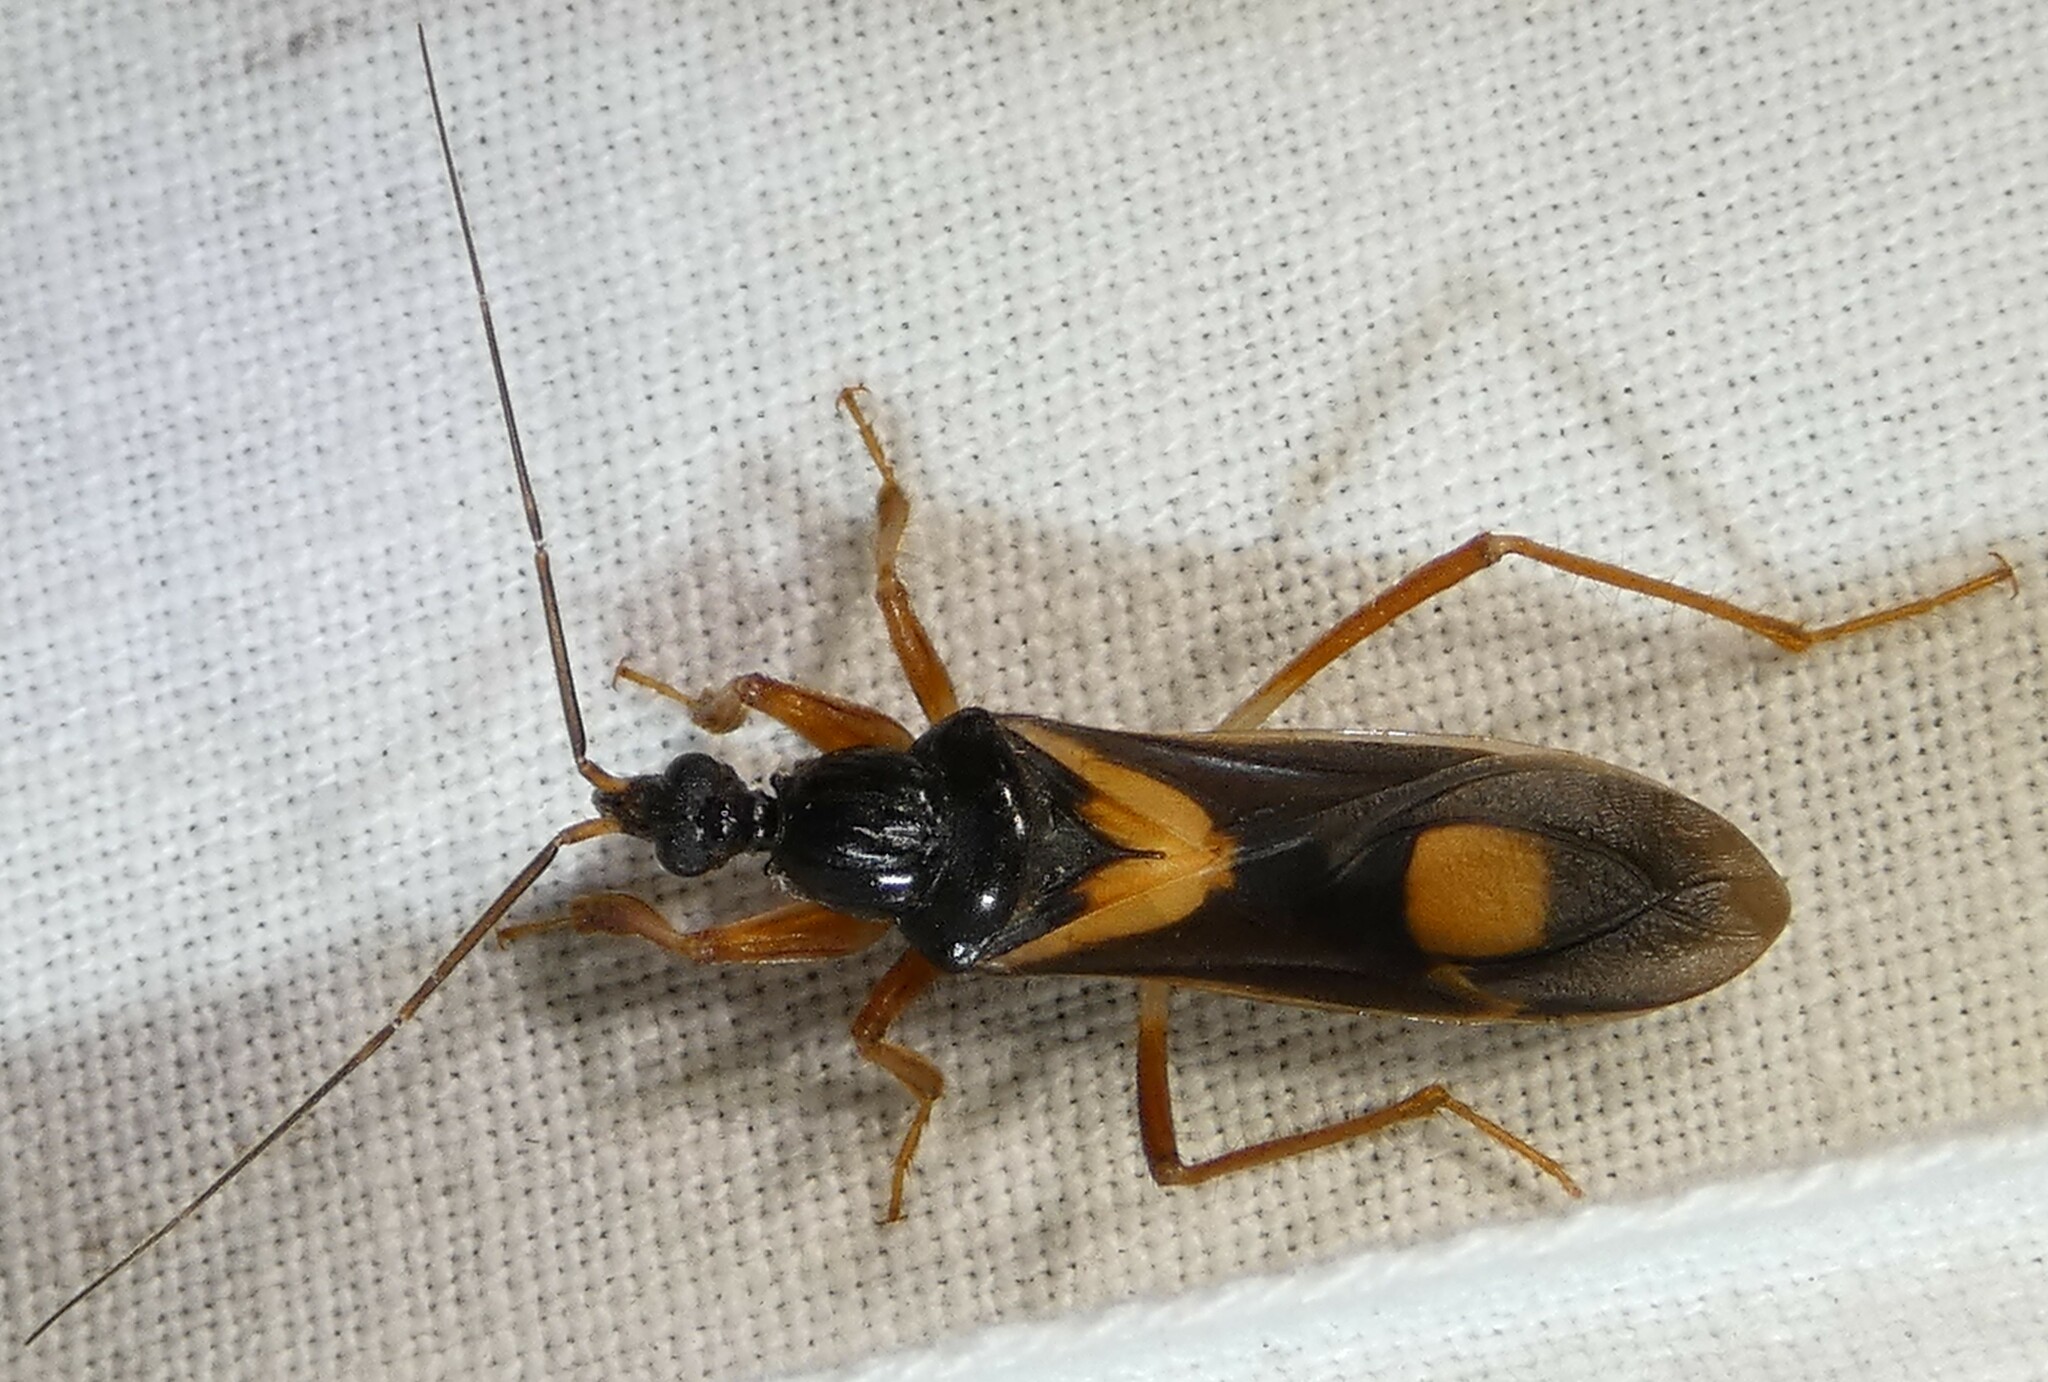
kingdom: Animalia
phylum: Arthropoda
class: Insecta
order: Hemiptera
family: Reduviidae
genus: Rasahus
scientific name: Rasahus hamatus
